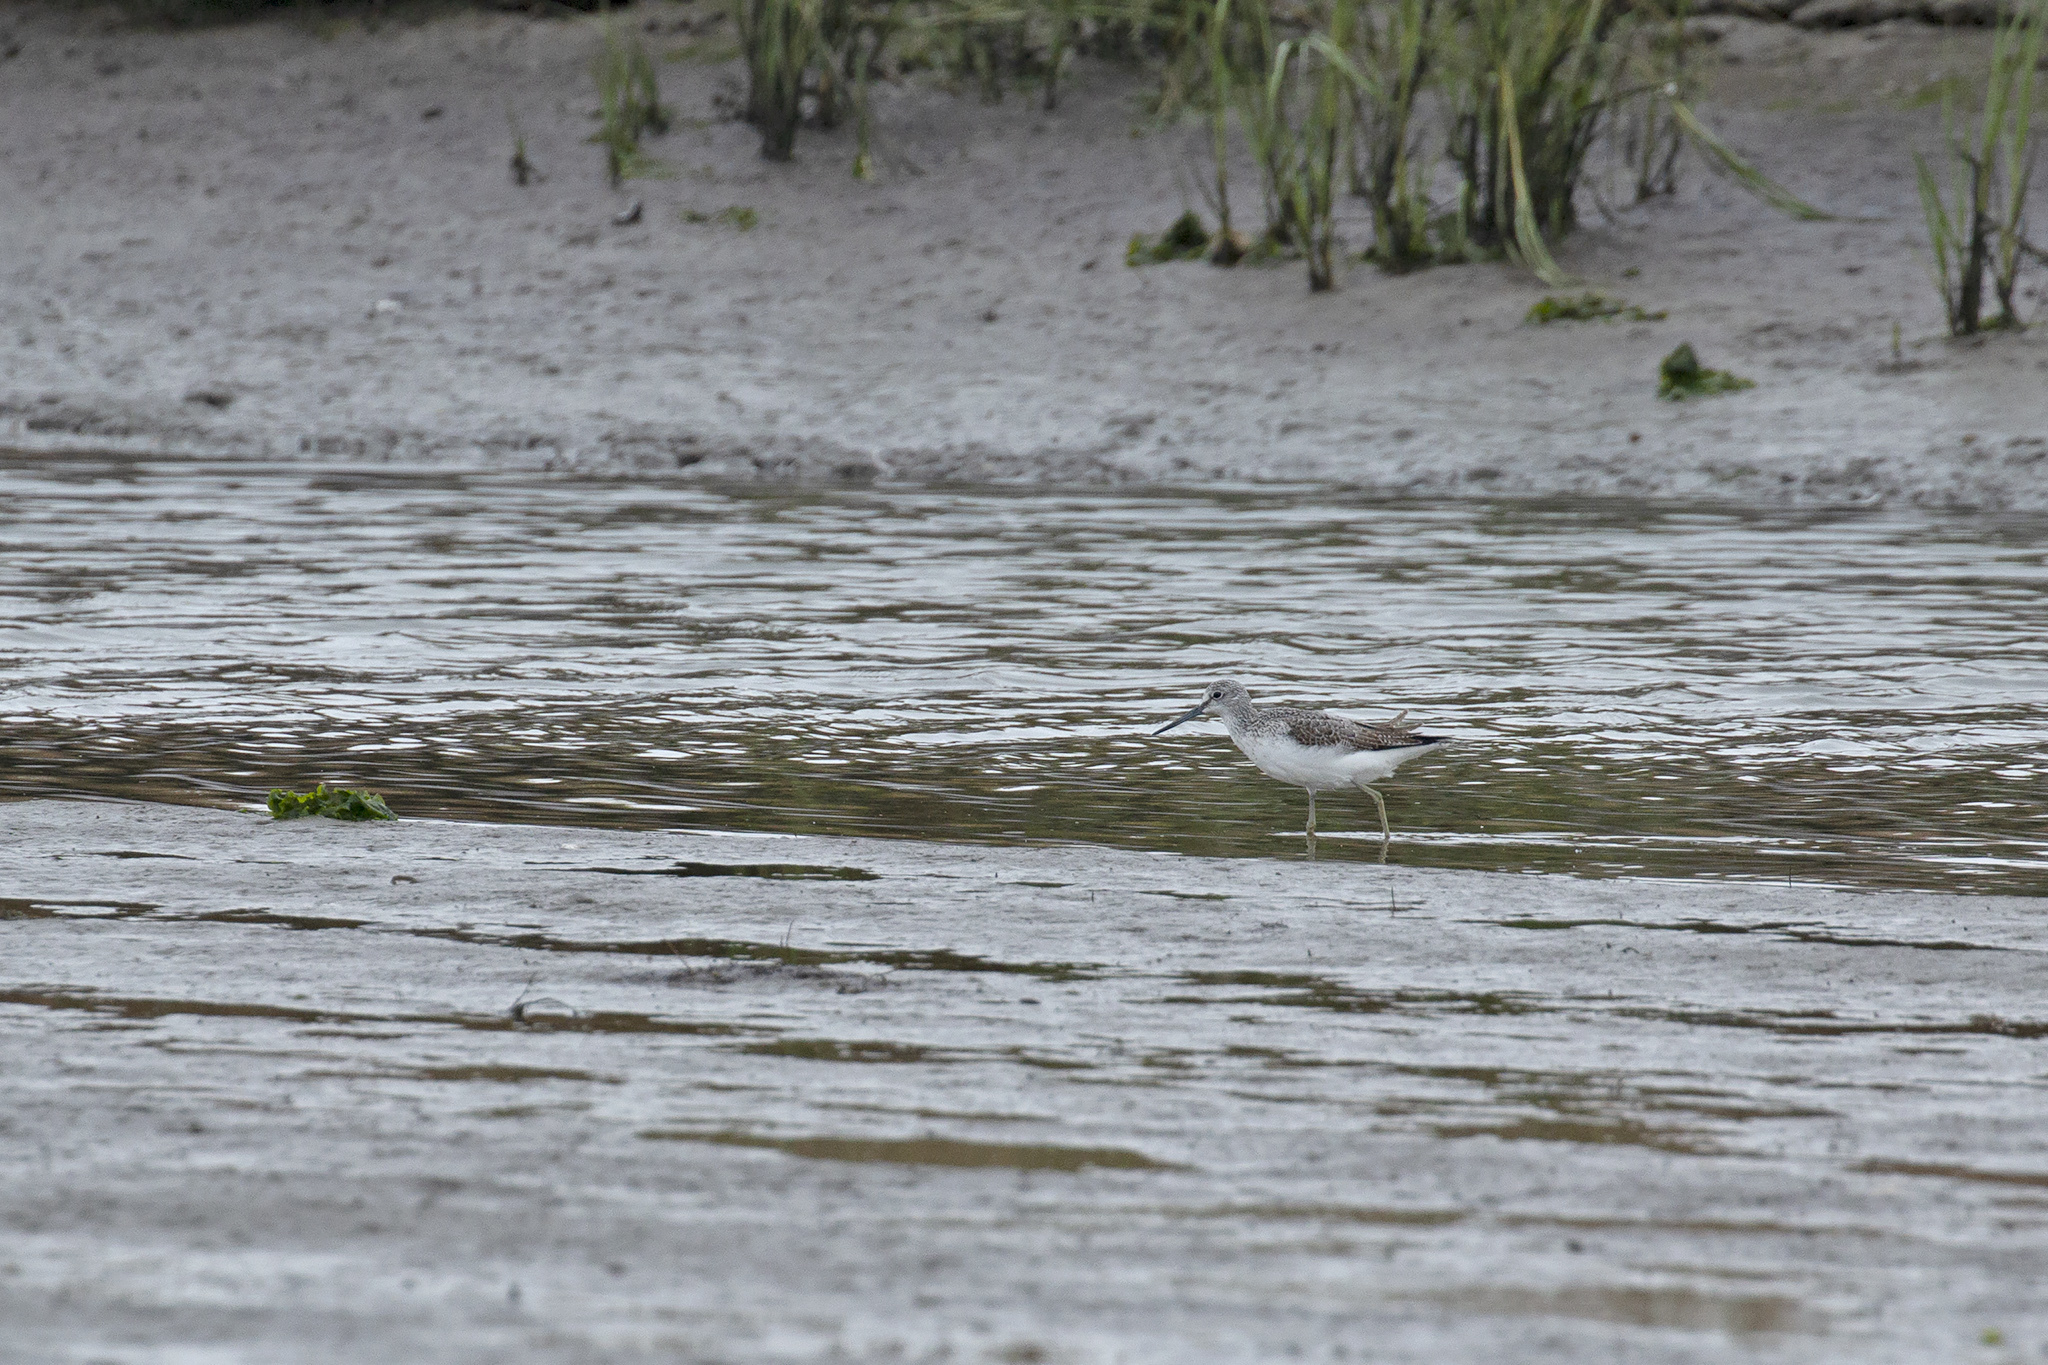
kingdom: Animalia
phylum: Chordata
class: Aves
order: Charadriiformes
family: Scolopacidae
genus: Tringa
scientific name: Tringa nebularia
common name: Common greenshank
